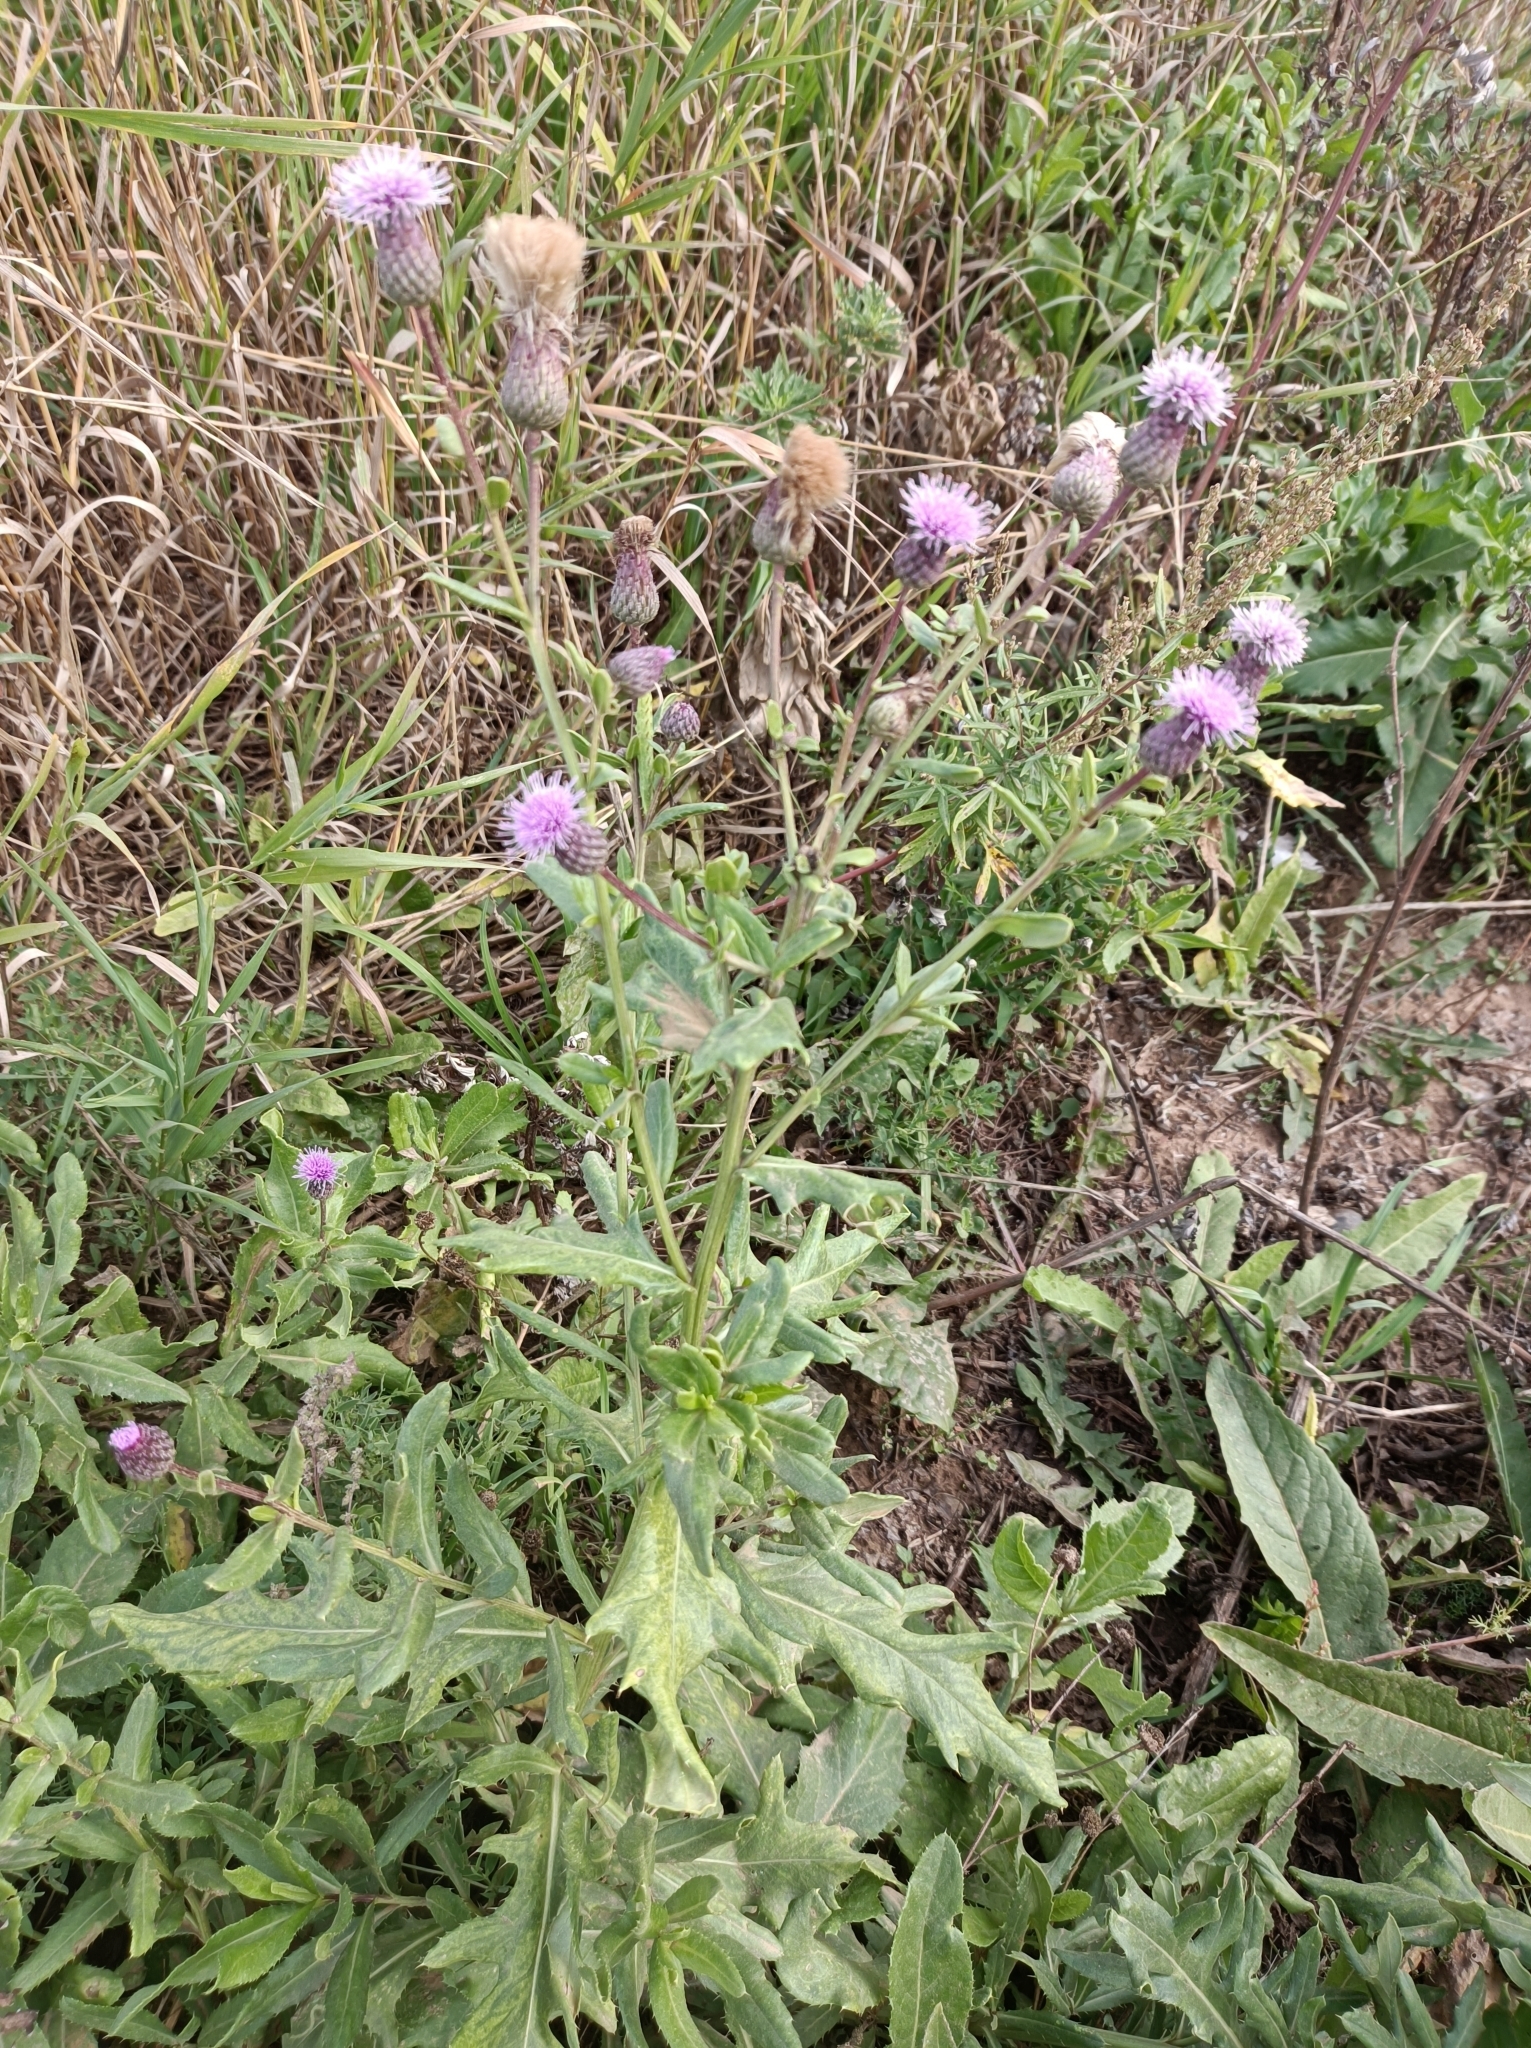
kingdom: Plantae
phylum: Tracheophyta
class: Magnoliopsida
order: Asterales
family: Asteraceae
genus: Cirsium
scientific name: Cirsium arvense
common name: Creeping thistle
